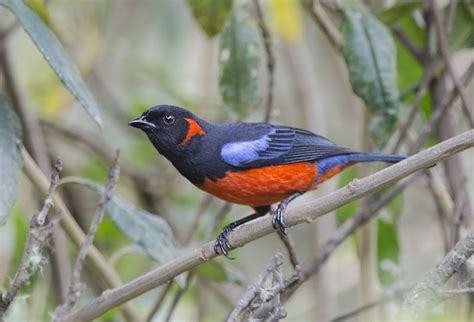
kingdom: Animalia
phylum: Chordata
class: Aves
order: Passeriformes
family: Thraupidae
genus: Anisognathus
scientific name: Anisognathus igniventris
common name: Scarlet-bellied mountain tanager
